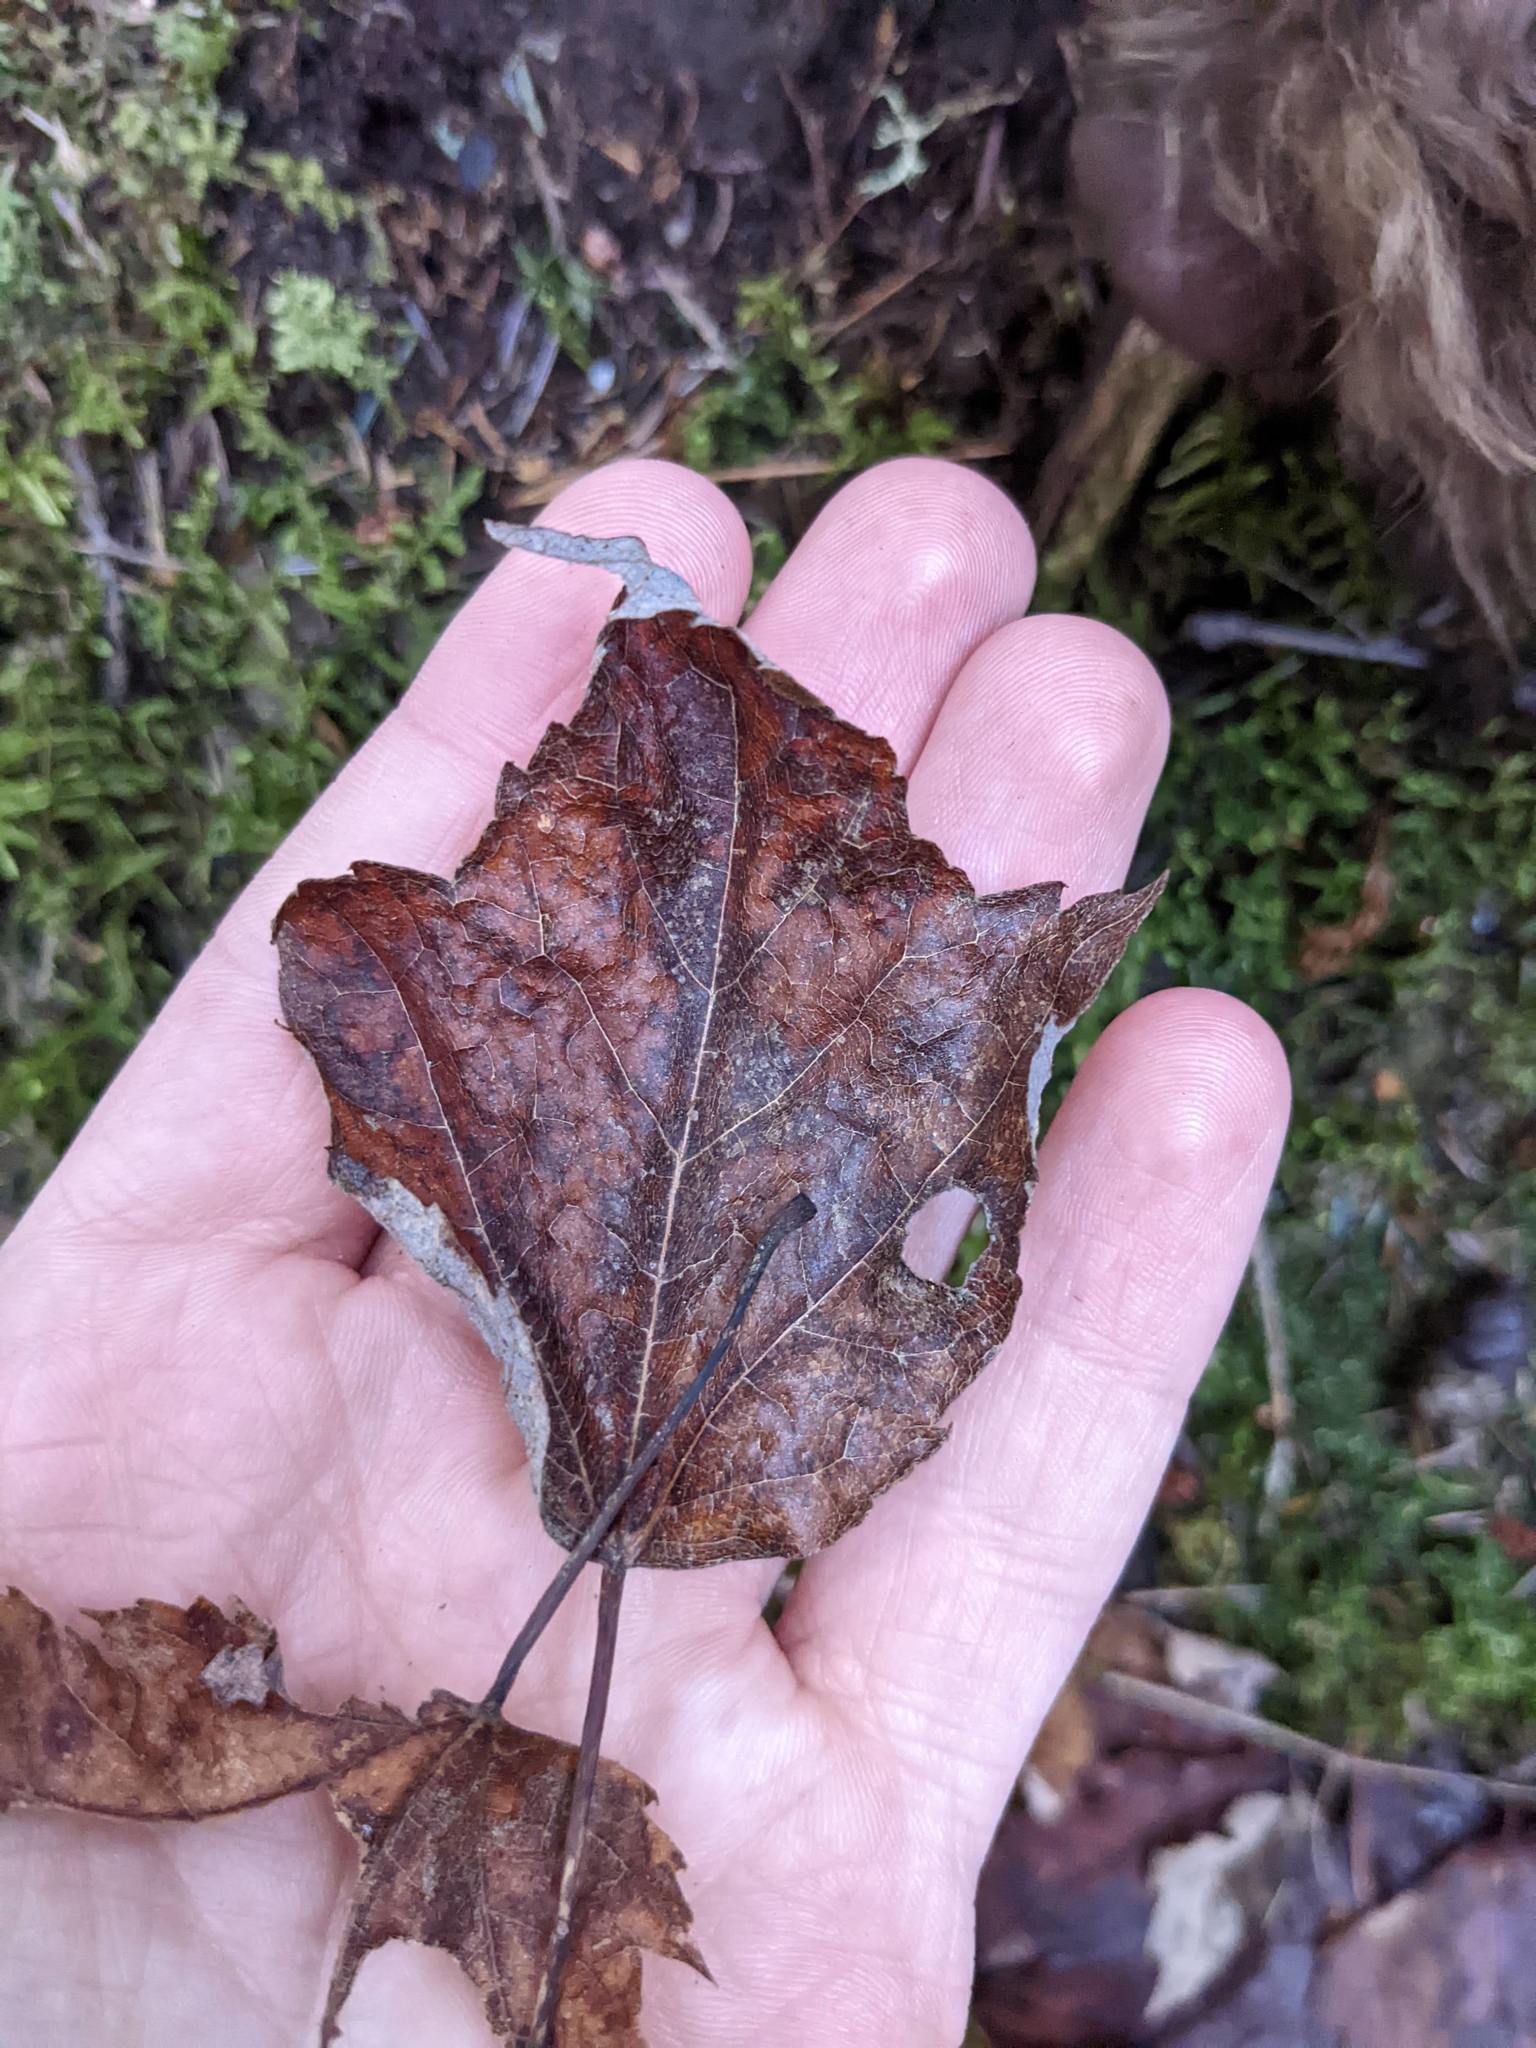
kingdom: Plantae
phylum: Tracheophyta
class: Magnoliopsida
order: Sapindales
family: Sapindaceae
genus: Acer
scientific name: Acer rubrum
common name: Red maple
